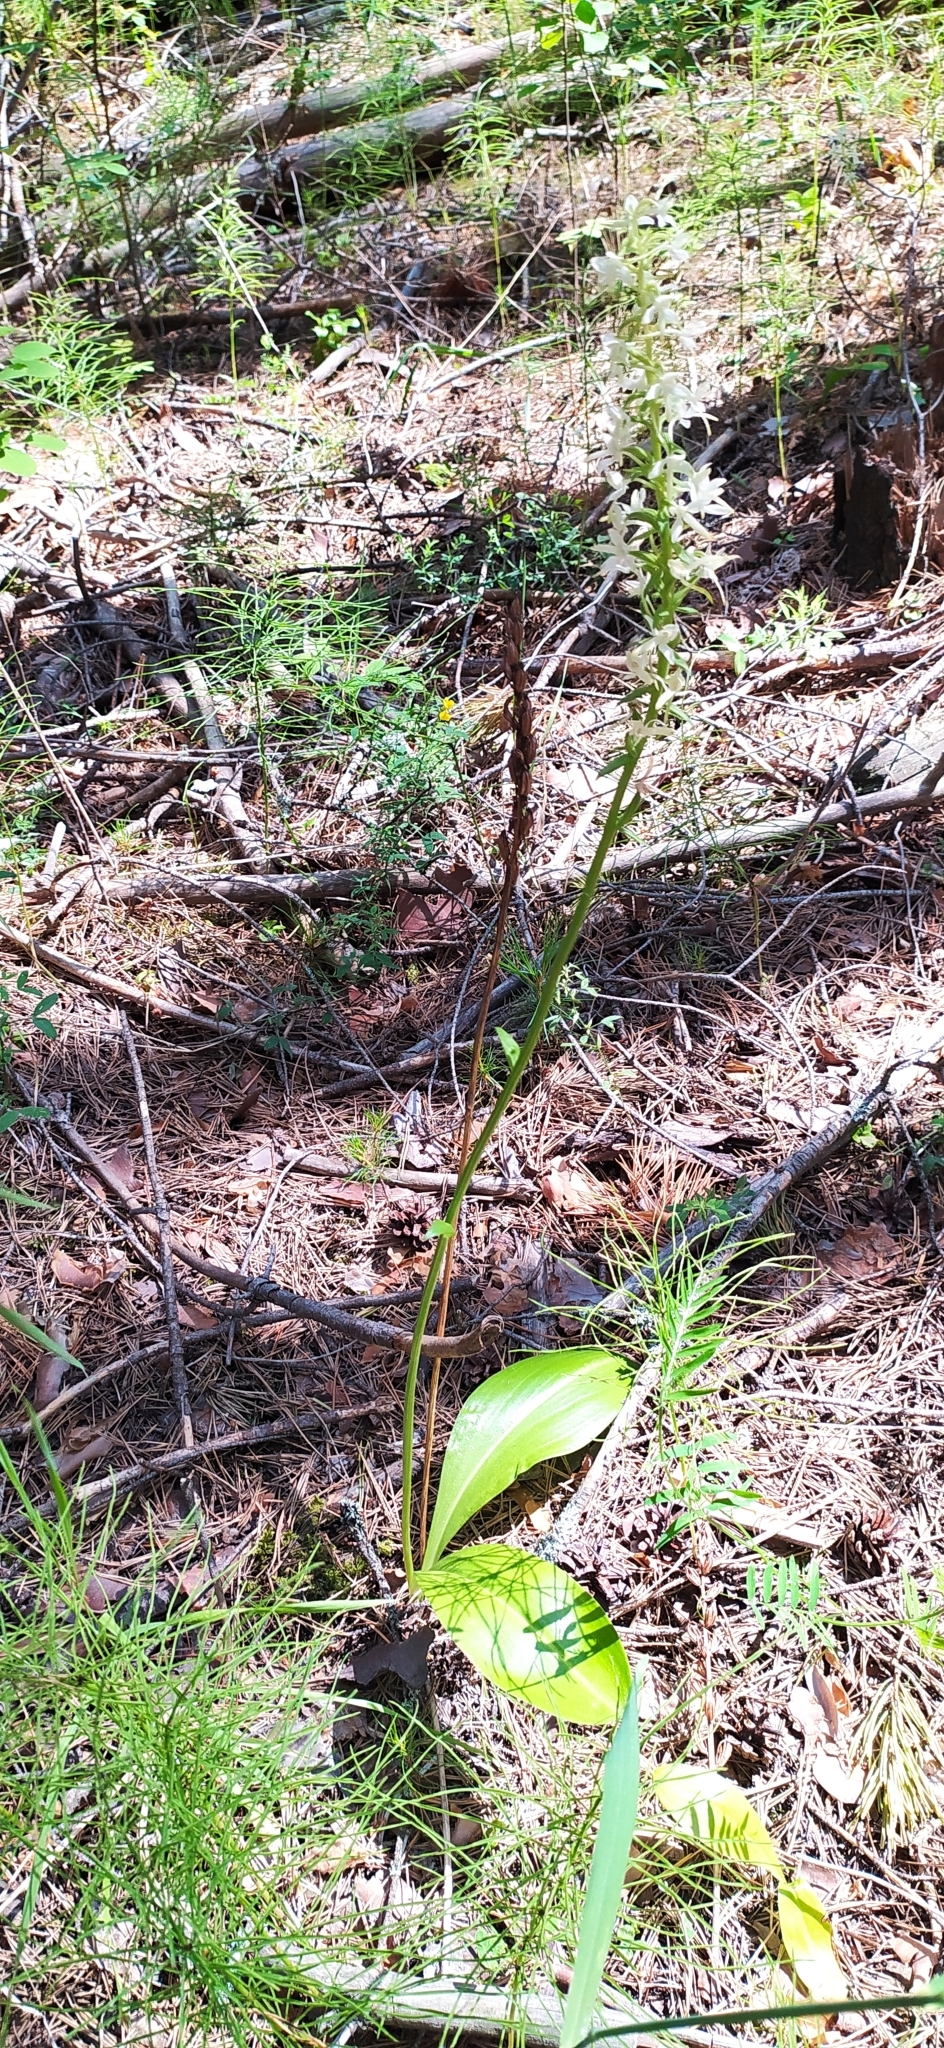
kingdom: Plantae
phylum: Tracheophyta
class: Liliopsida
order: Asparagales
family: Orchidaceae
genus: Platanthera
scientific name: Platanthera bifolia
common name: Lesser butterfly-orchid
